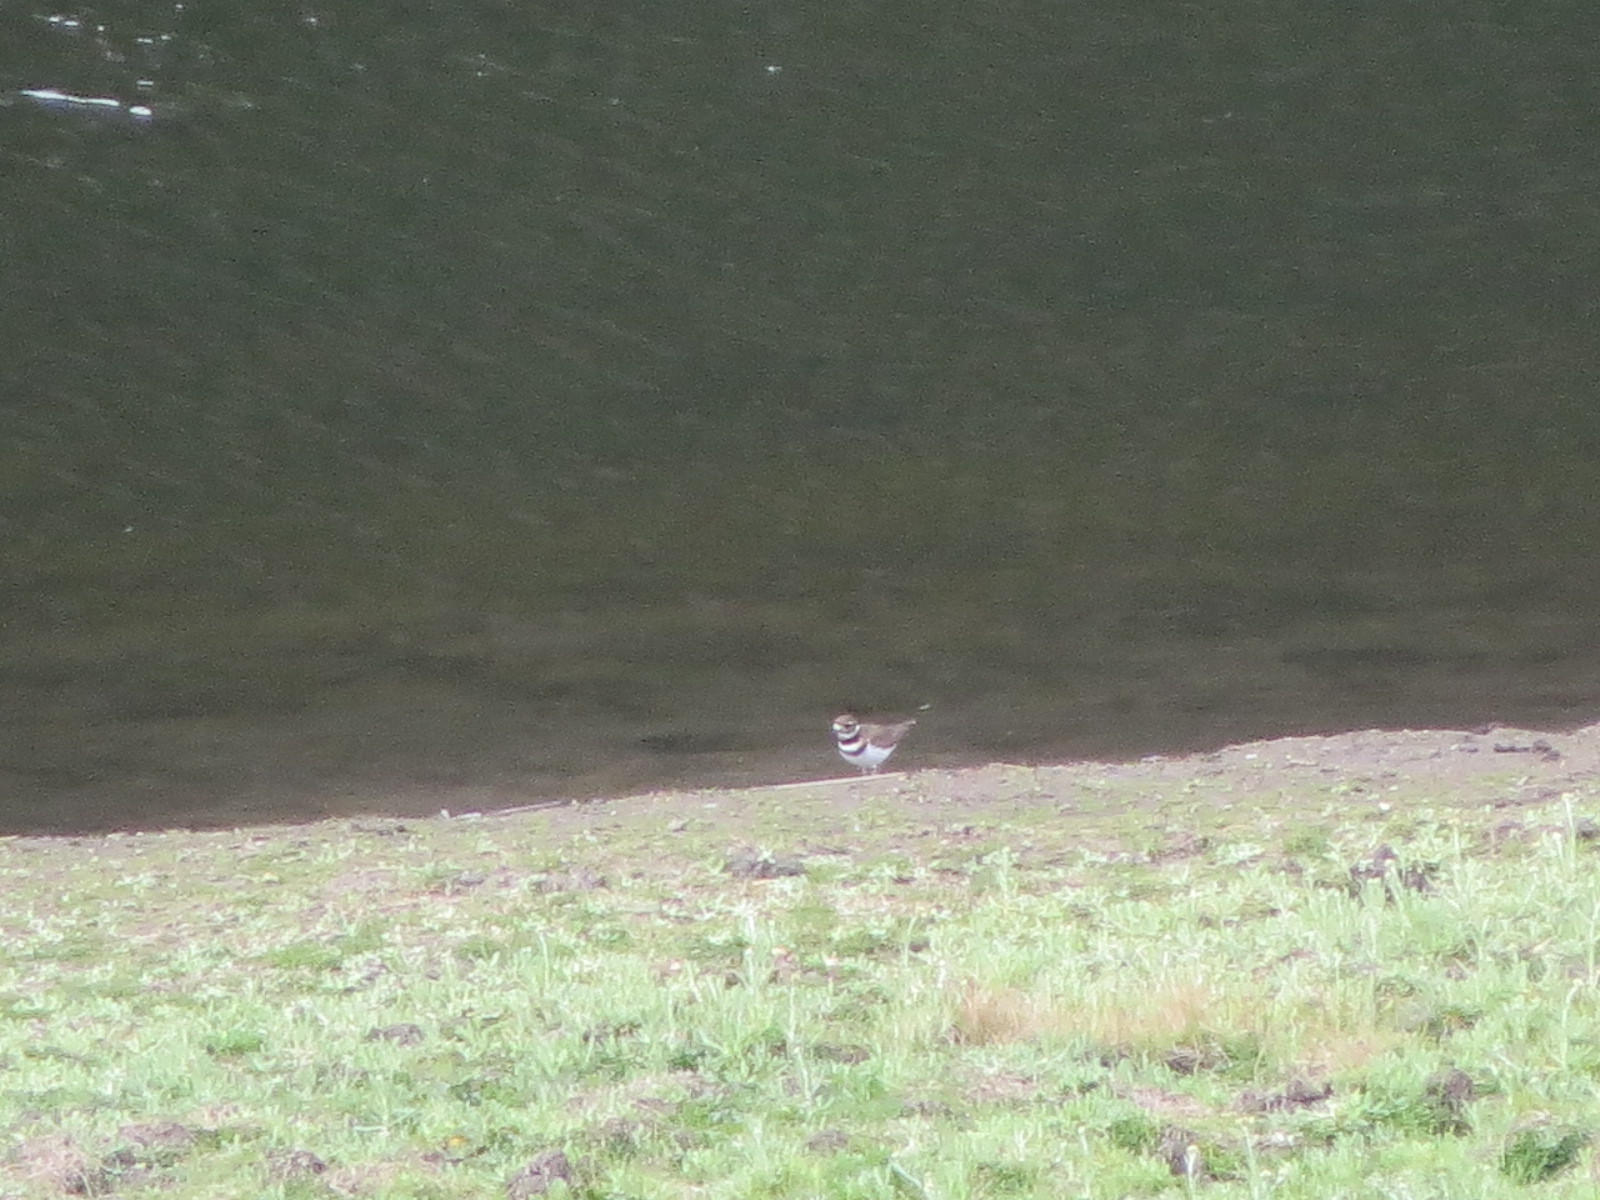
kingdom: Animalia
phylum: Chordata
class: Aves
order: Charadriiformes
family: Charadriidae
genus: Charadrius
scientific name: Charadrius vociferus
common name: Killdeer
